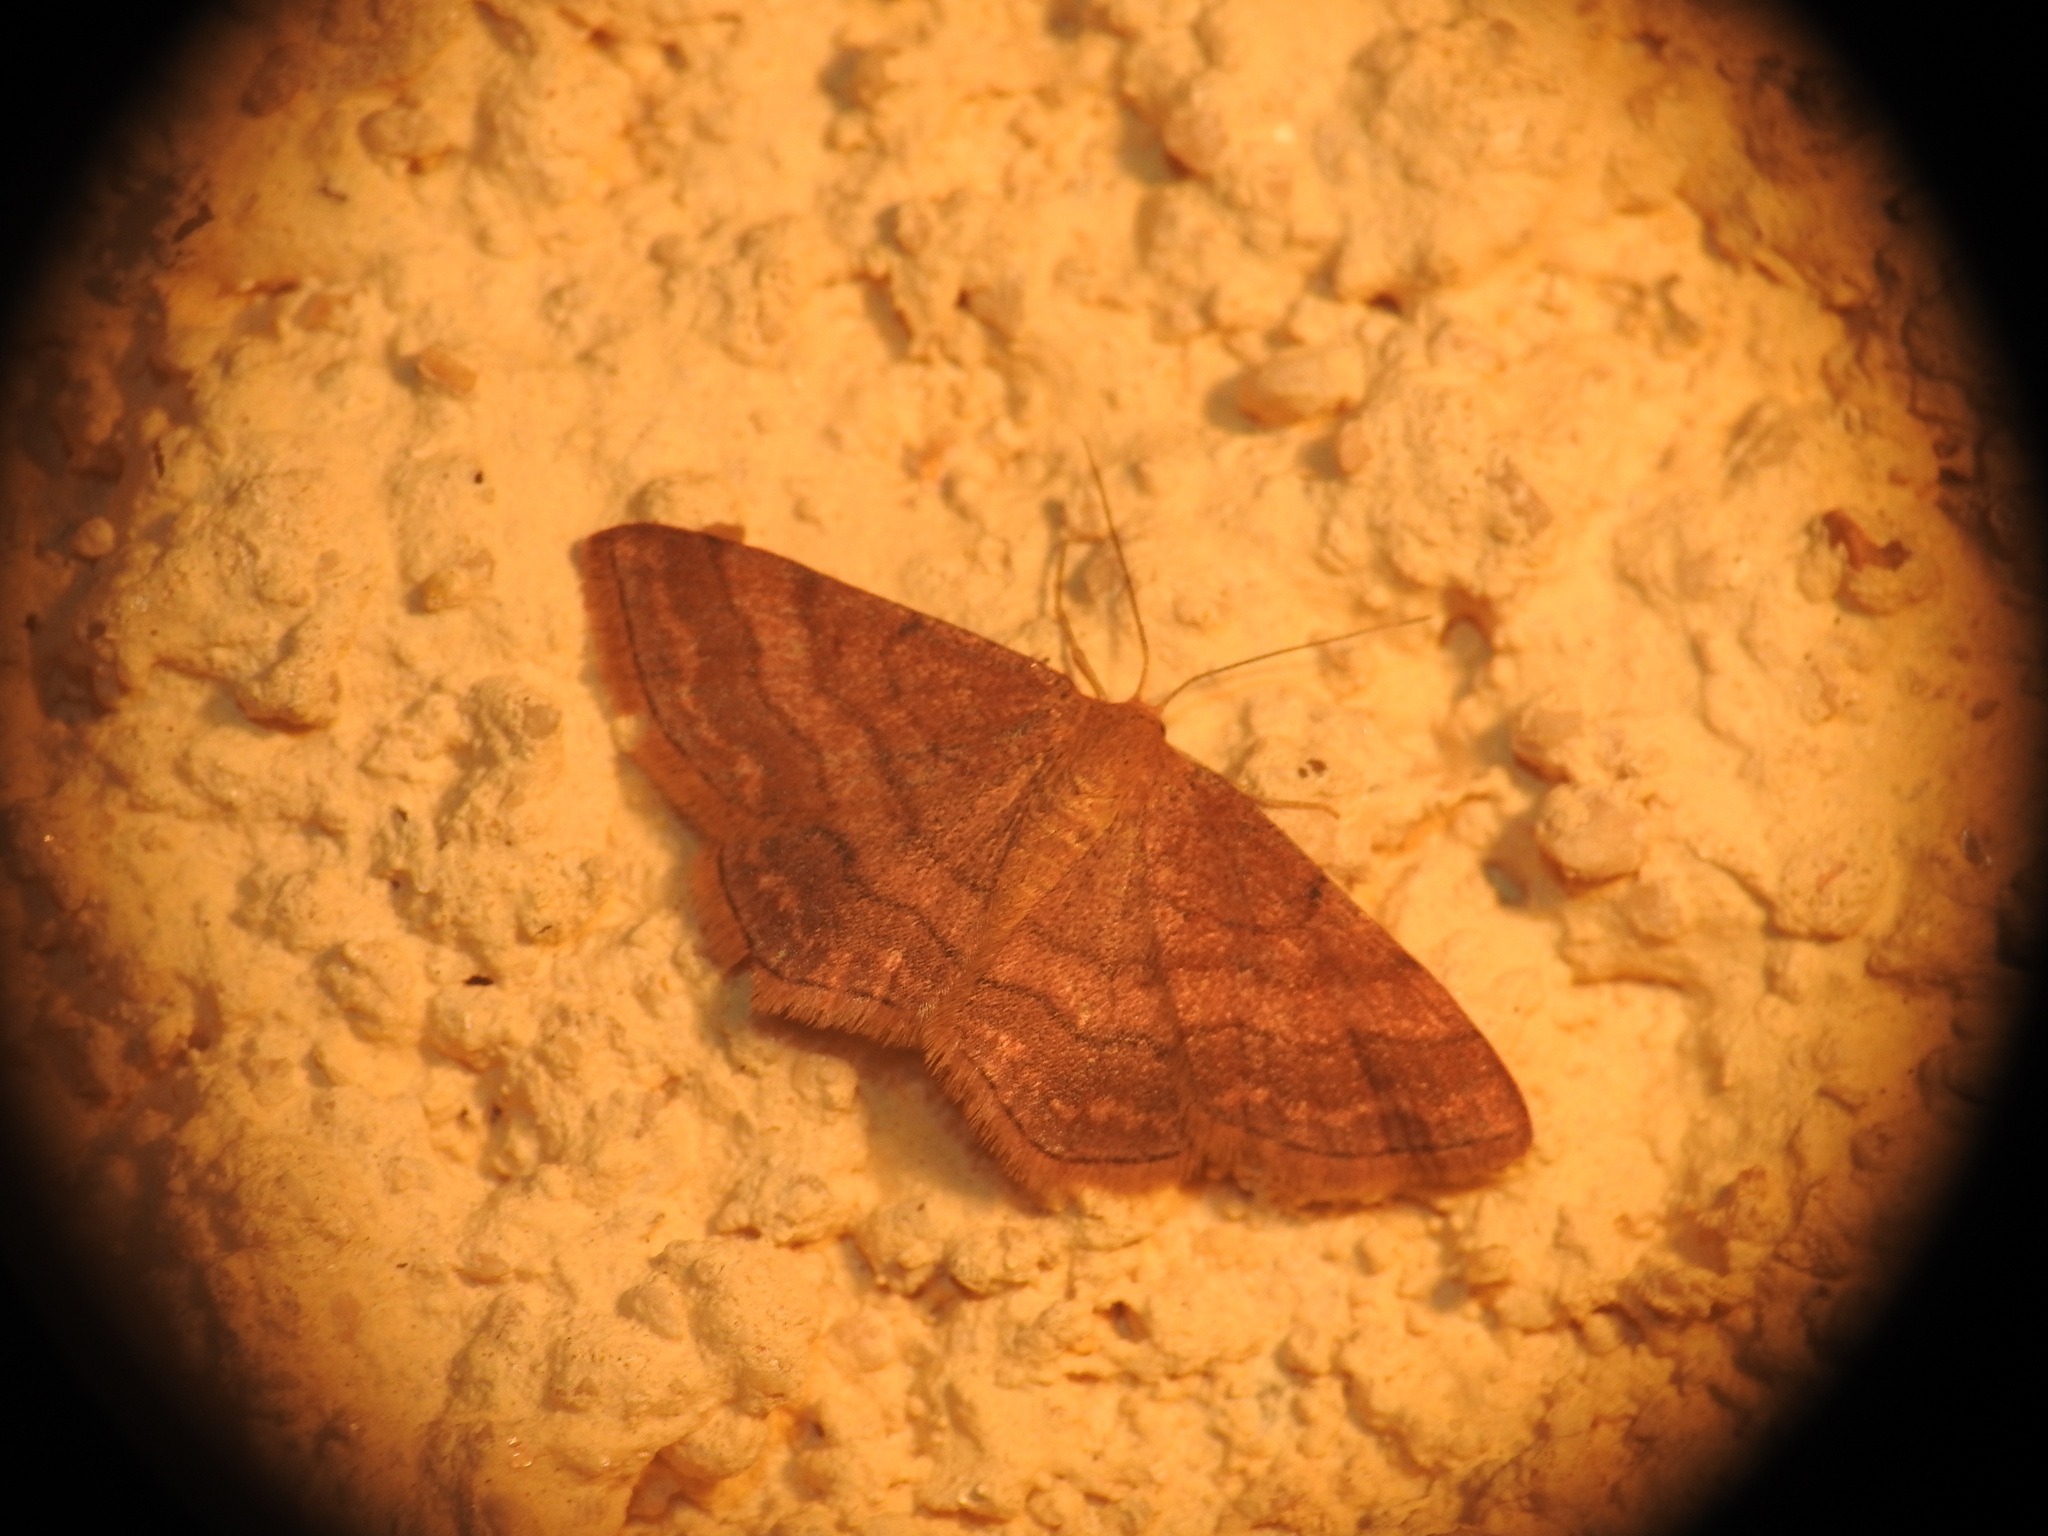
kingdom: Animalia
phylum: Arthropoda
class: Insecta
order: Lepidoptera
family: Geometridae
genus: Scopula
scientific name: Scopula rubiginata
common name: Tawny wave
